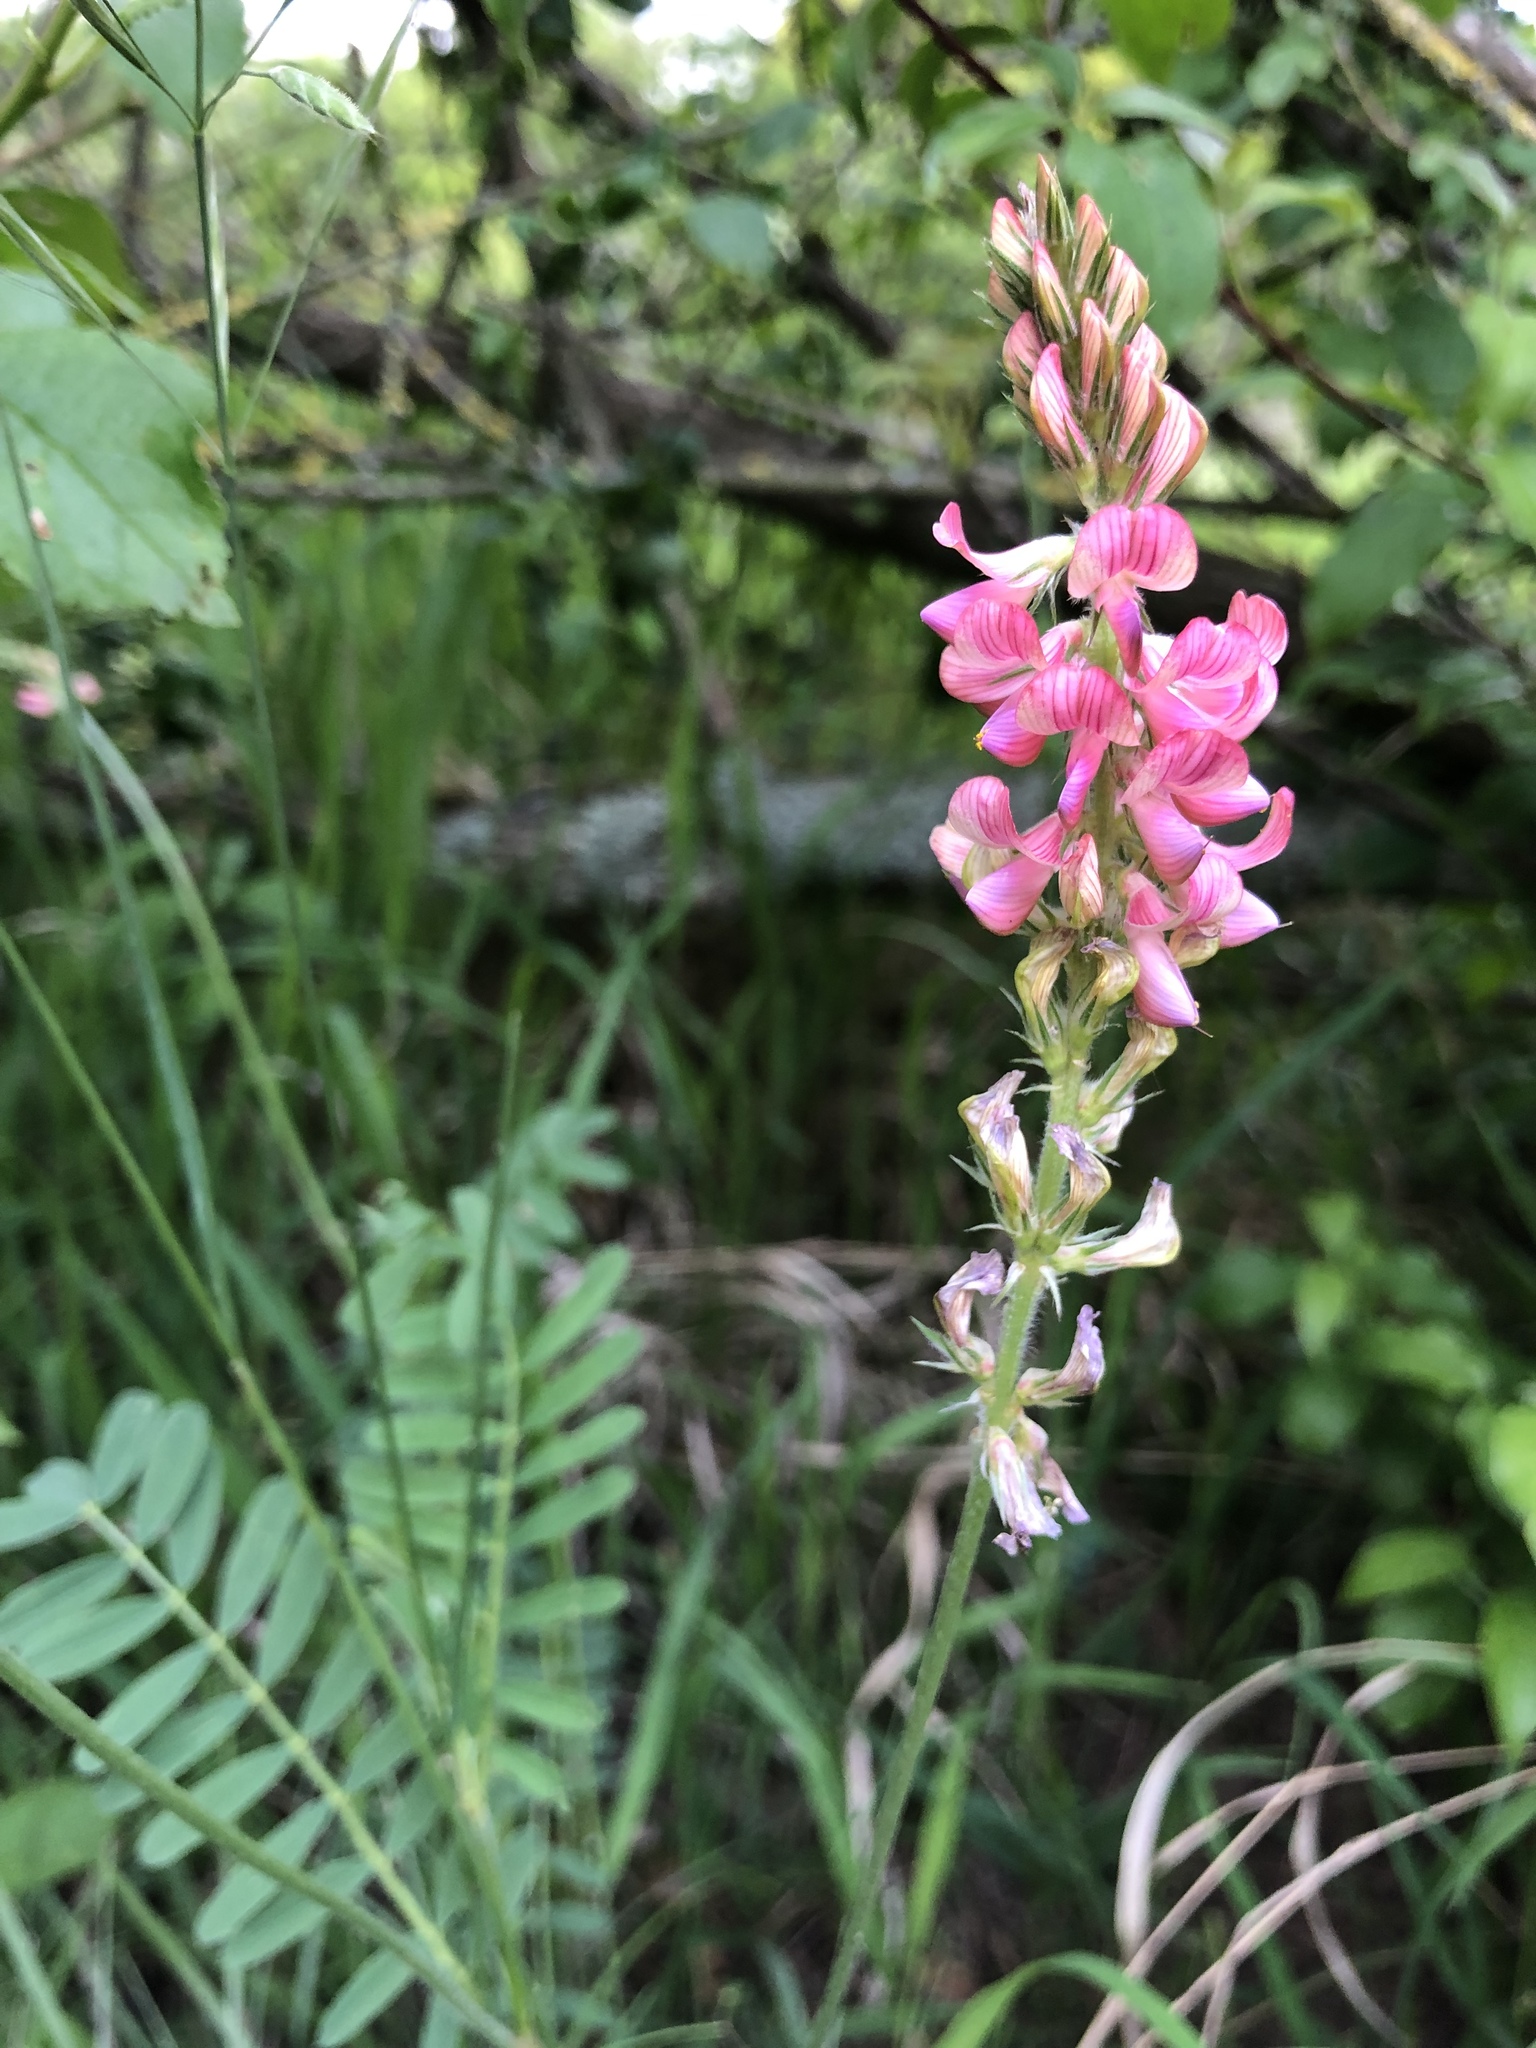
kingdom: Plantae
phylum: Tracheophyta
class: Magnoliopsida
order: Fabales
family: Fabaceae
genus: Onobrychis
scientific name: Onobrychis viciifolia
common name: Sainfoin
